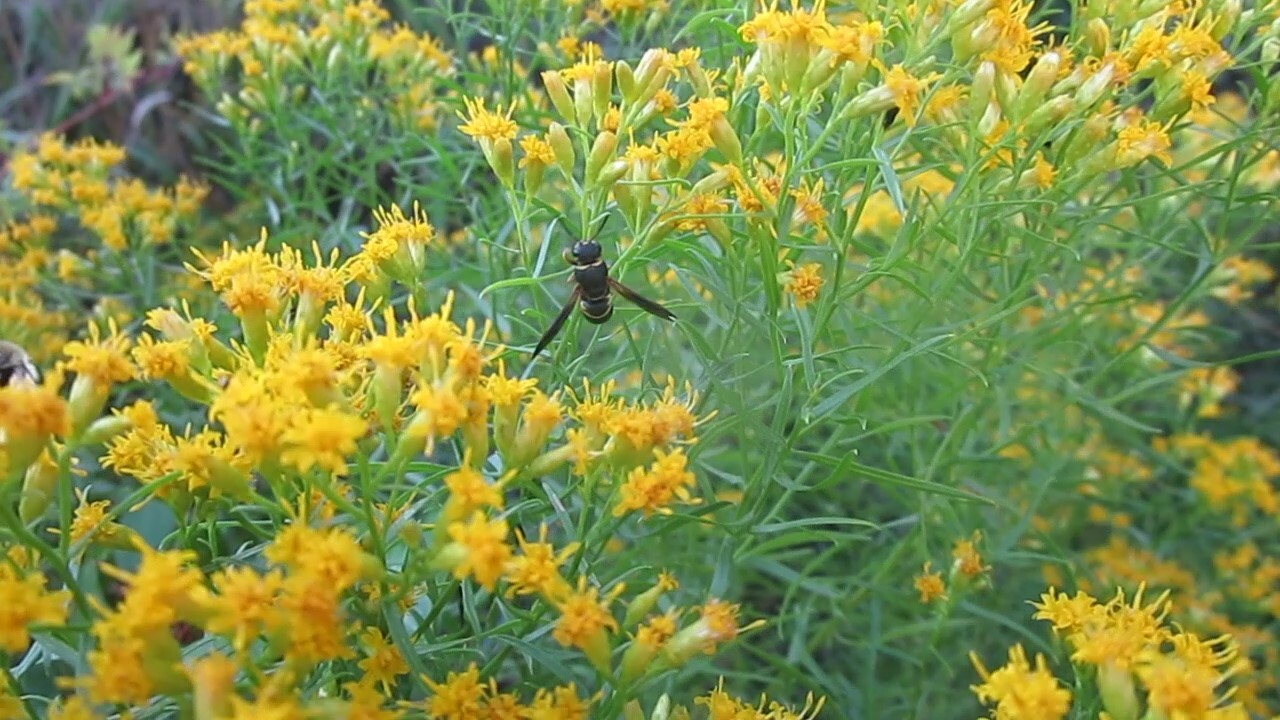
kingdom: Animalia
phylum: Arthropoda
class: Insecta
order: Hymenoptera
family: Eumenidae
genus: Euodynerus
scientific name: Euodynerus hidalgo
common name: Wasp
